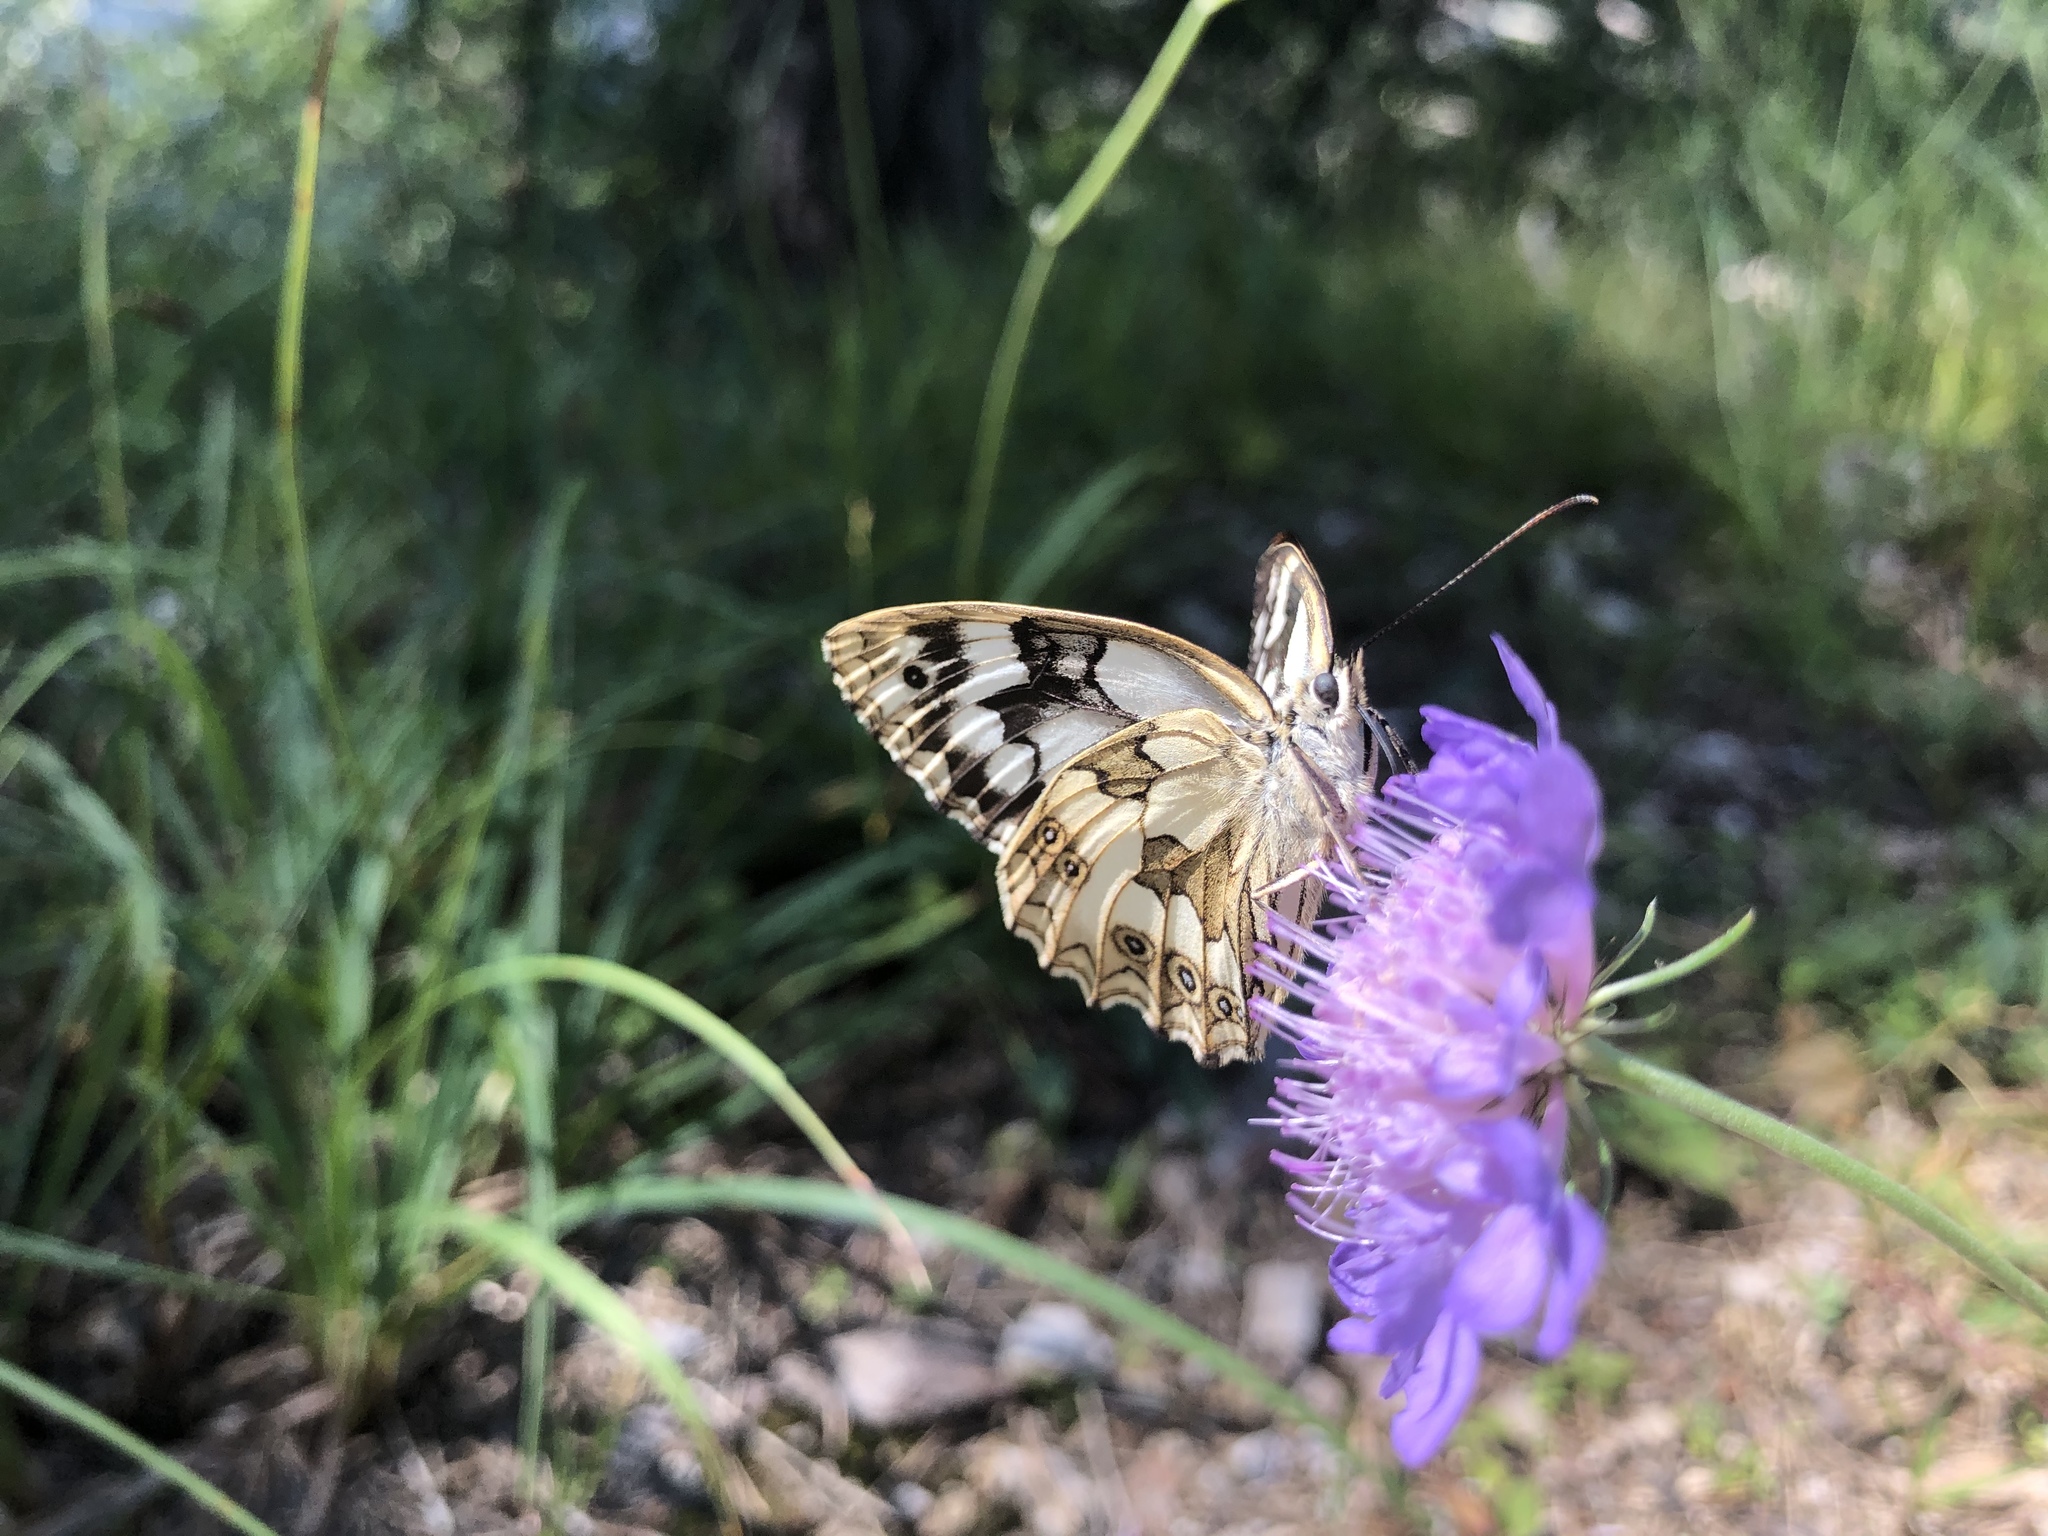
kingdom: Animalia
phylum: Arthropoda
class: Insecta
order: Lepidoptera
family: Nymphalidae
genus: Melanargia
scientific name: Melanargia galathea
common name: Marbled white
